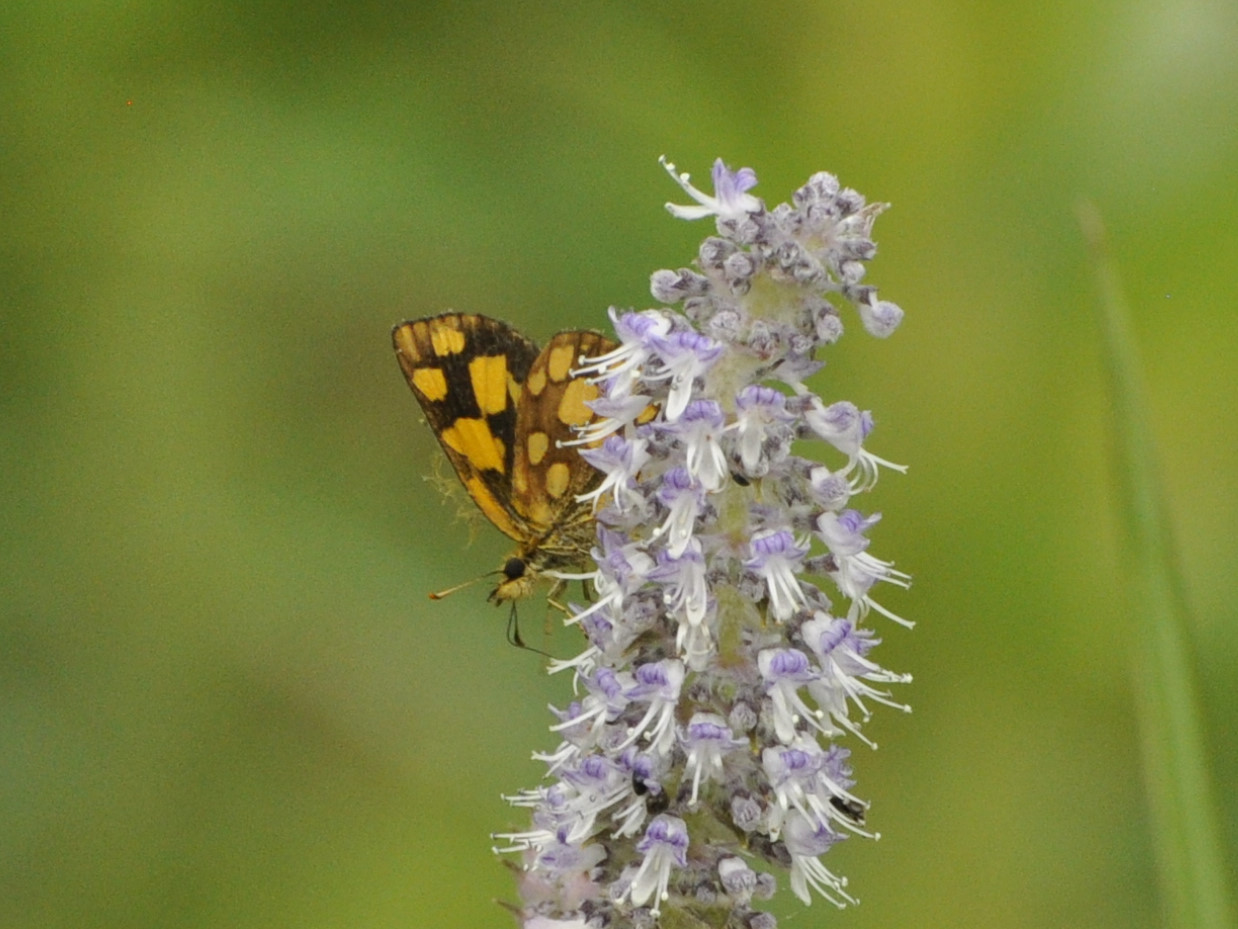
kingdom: Animalia
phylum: Arthropoda
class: Insecta
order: Lepidoptera
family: Hesperiidae
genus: Metisella
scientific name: Metisella midas
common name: Golden sylph
